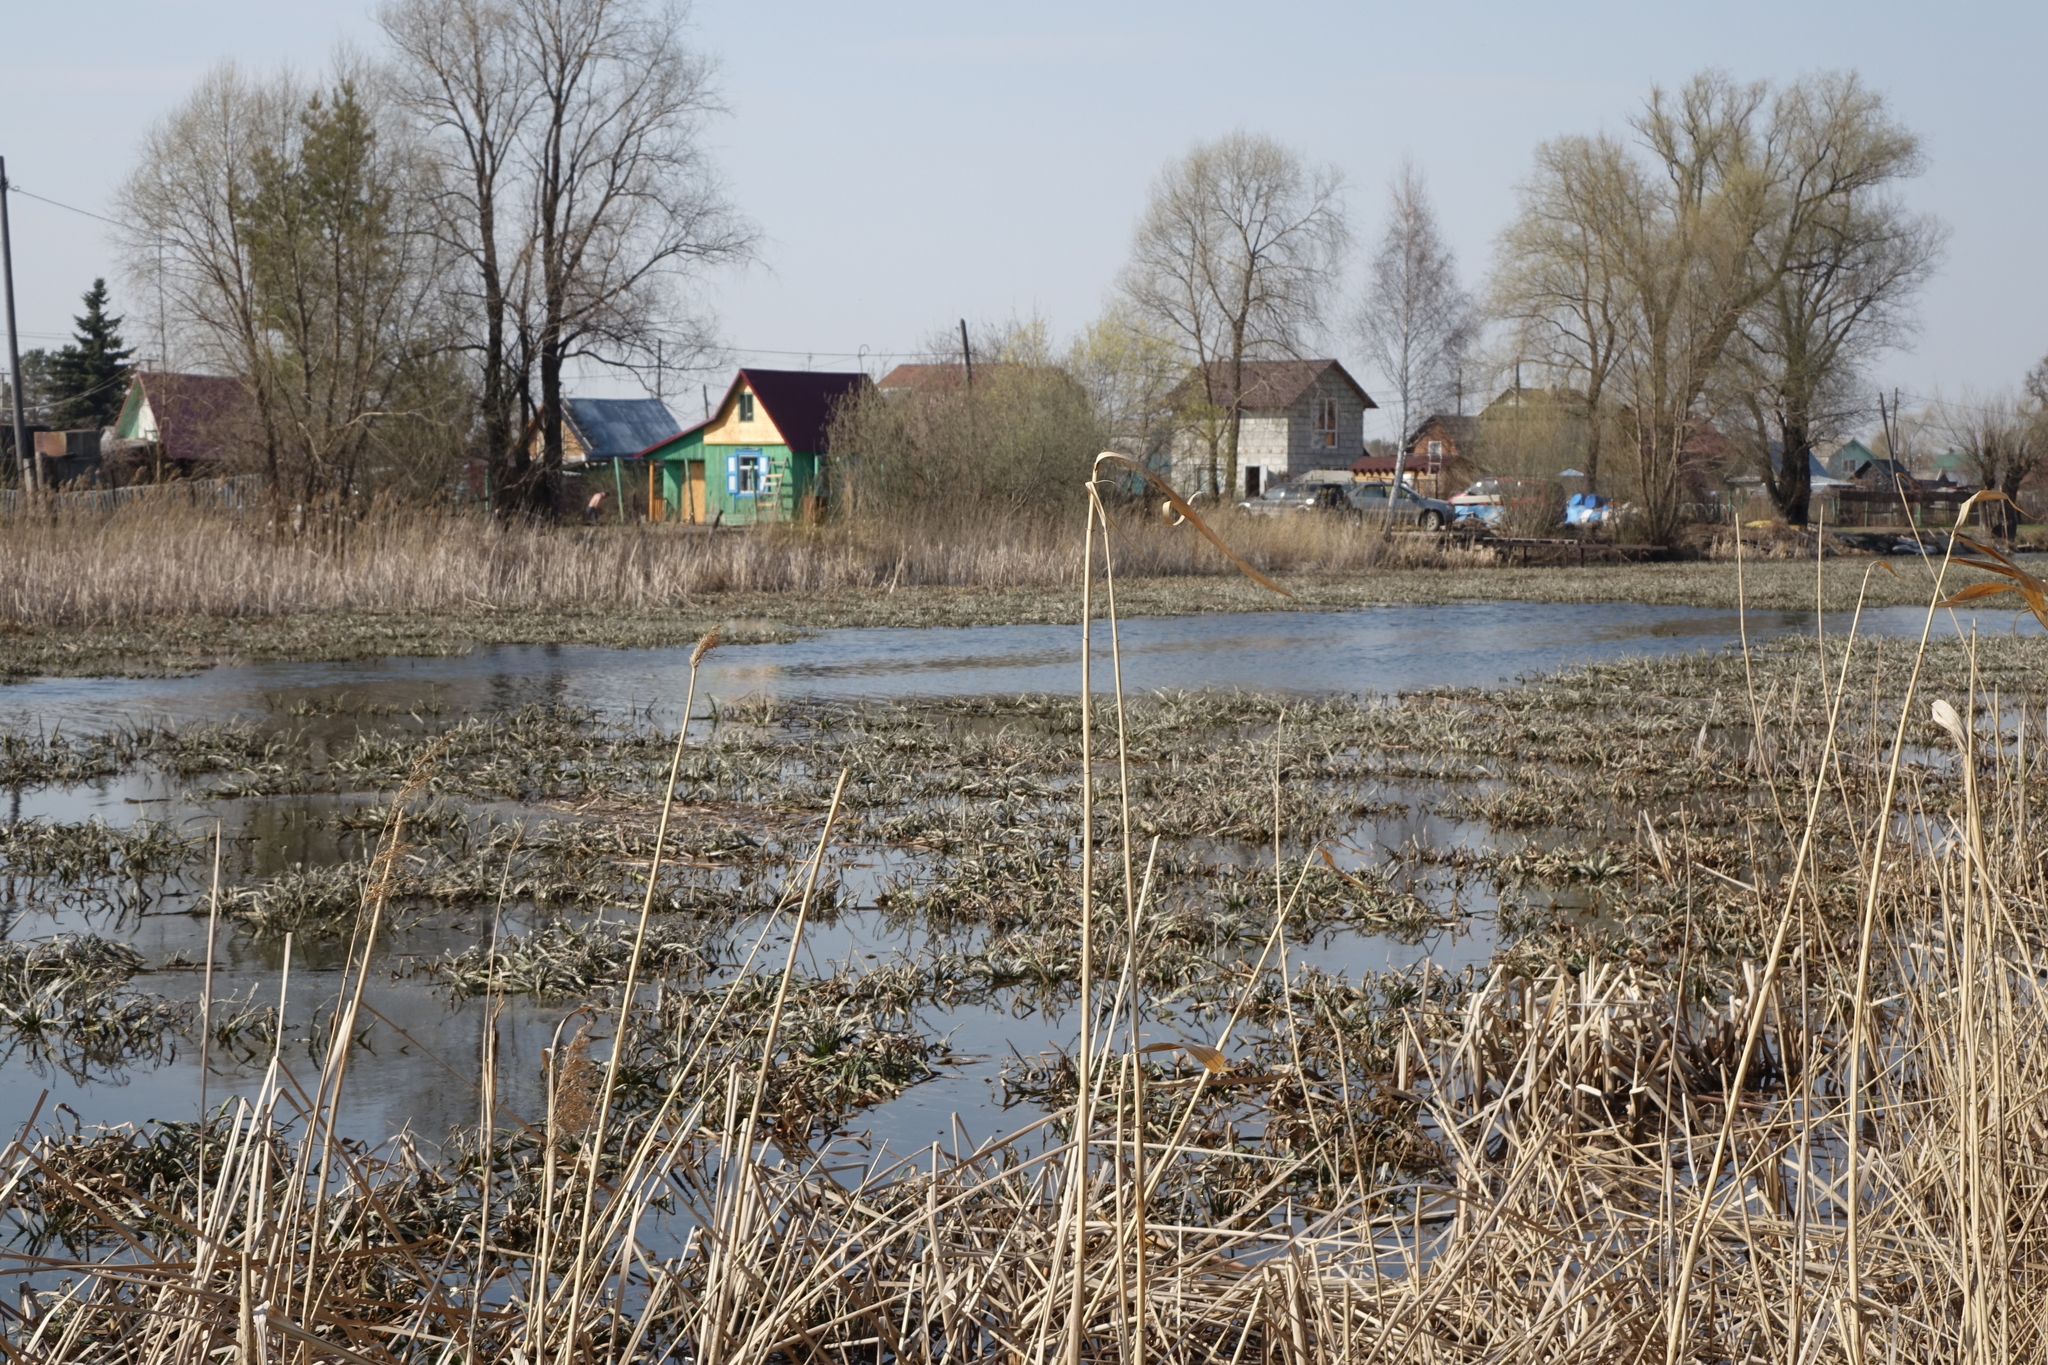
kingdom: Plantae
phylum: Tracheophyta
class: Liliopsida
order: Alismatales
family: Hydrocharitaceae
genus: Stratiotes
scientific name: Stratiotes aloides
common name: Water-soldier
